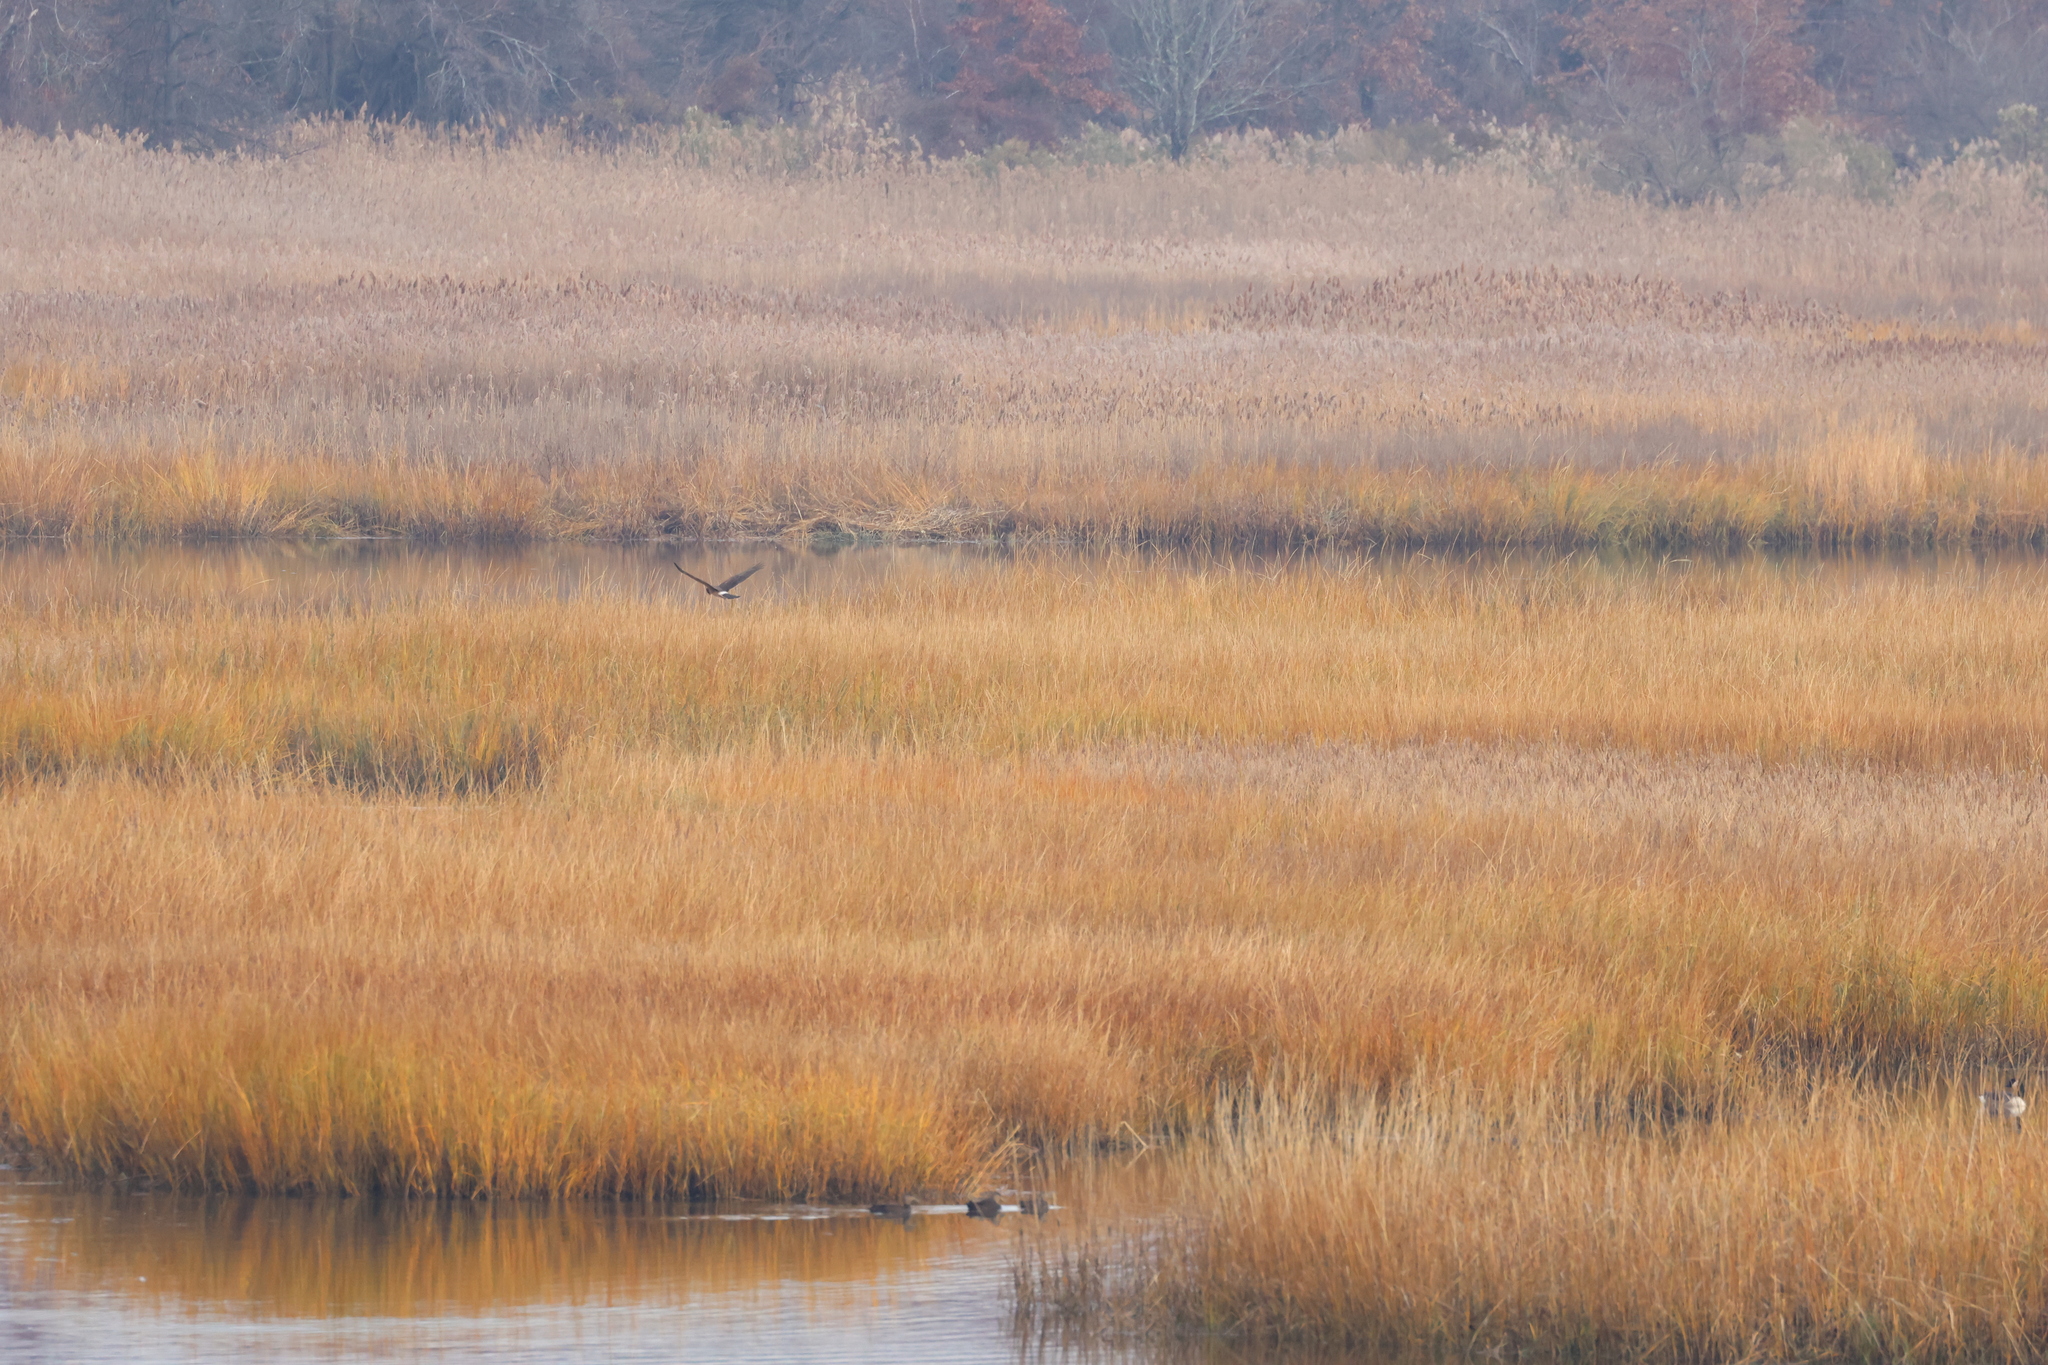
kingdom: Animalia
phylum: Chordata
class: Aves
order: Accipitriformes
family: Accipitridae
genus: Circus
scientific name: Circus cyaneus
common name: Hen harrier
